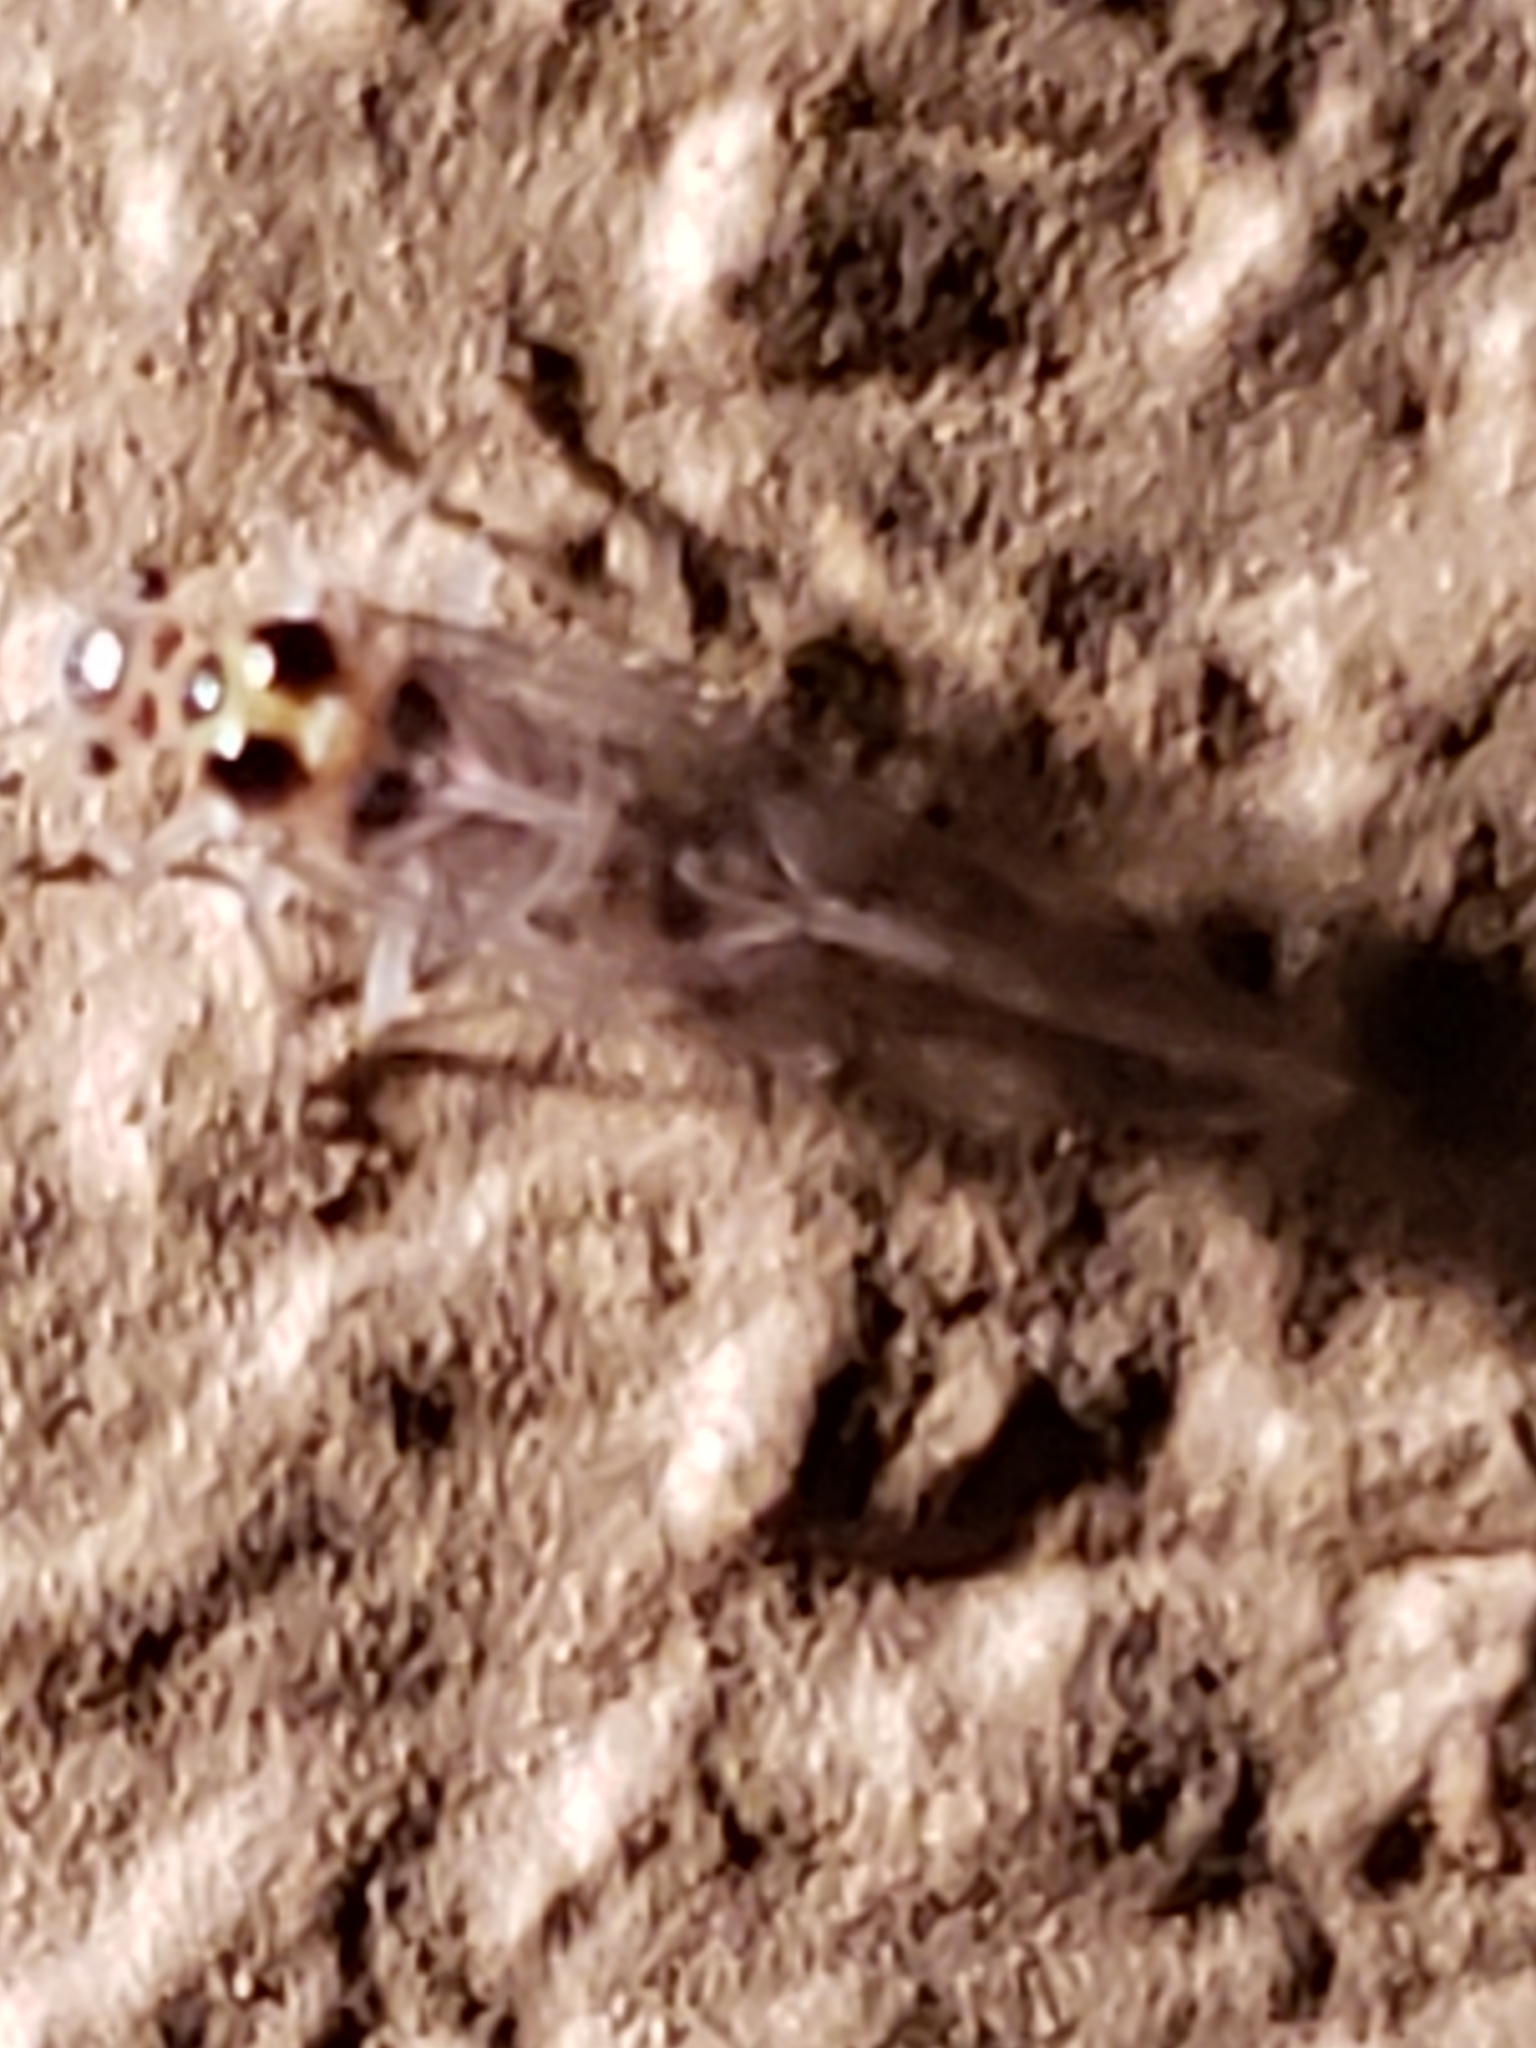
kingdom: Animalia
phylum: Arthropoda
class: Insecta
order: Psocodea
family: Dasydemellidae
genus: Teliapsocus
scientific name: Teliapsocus conterminus
